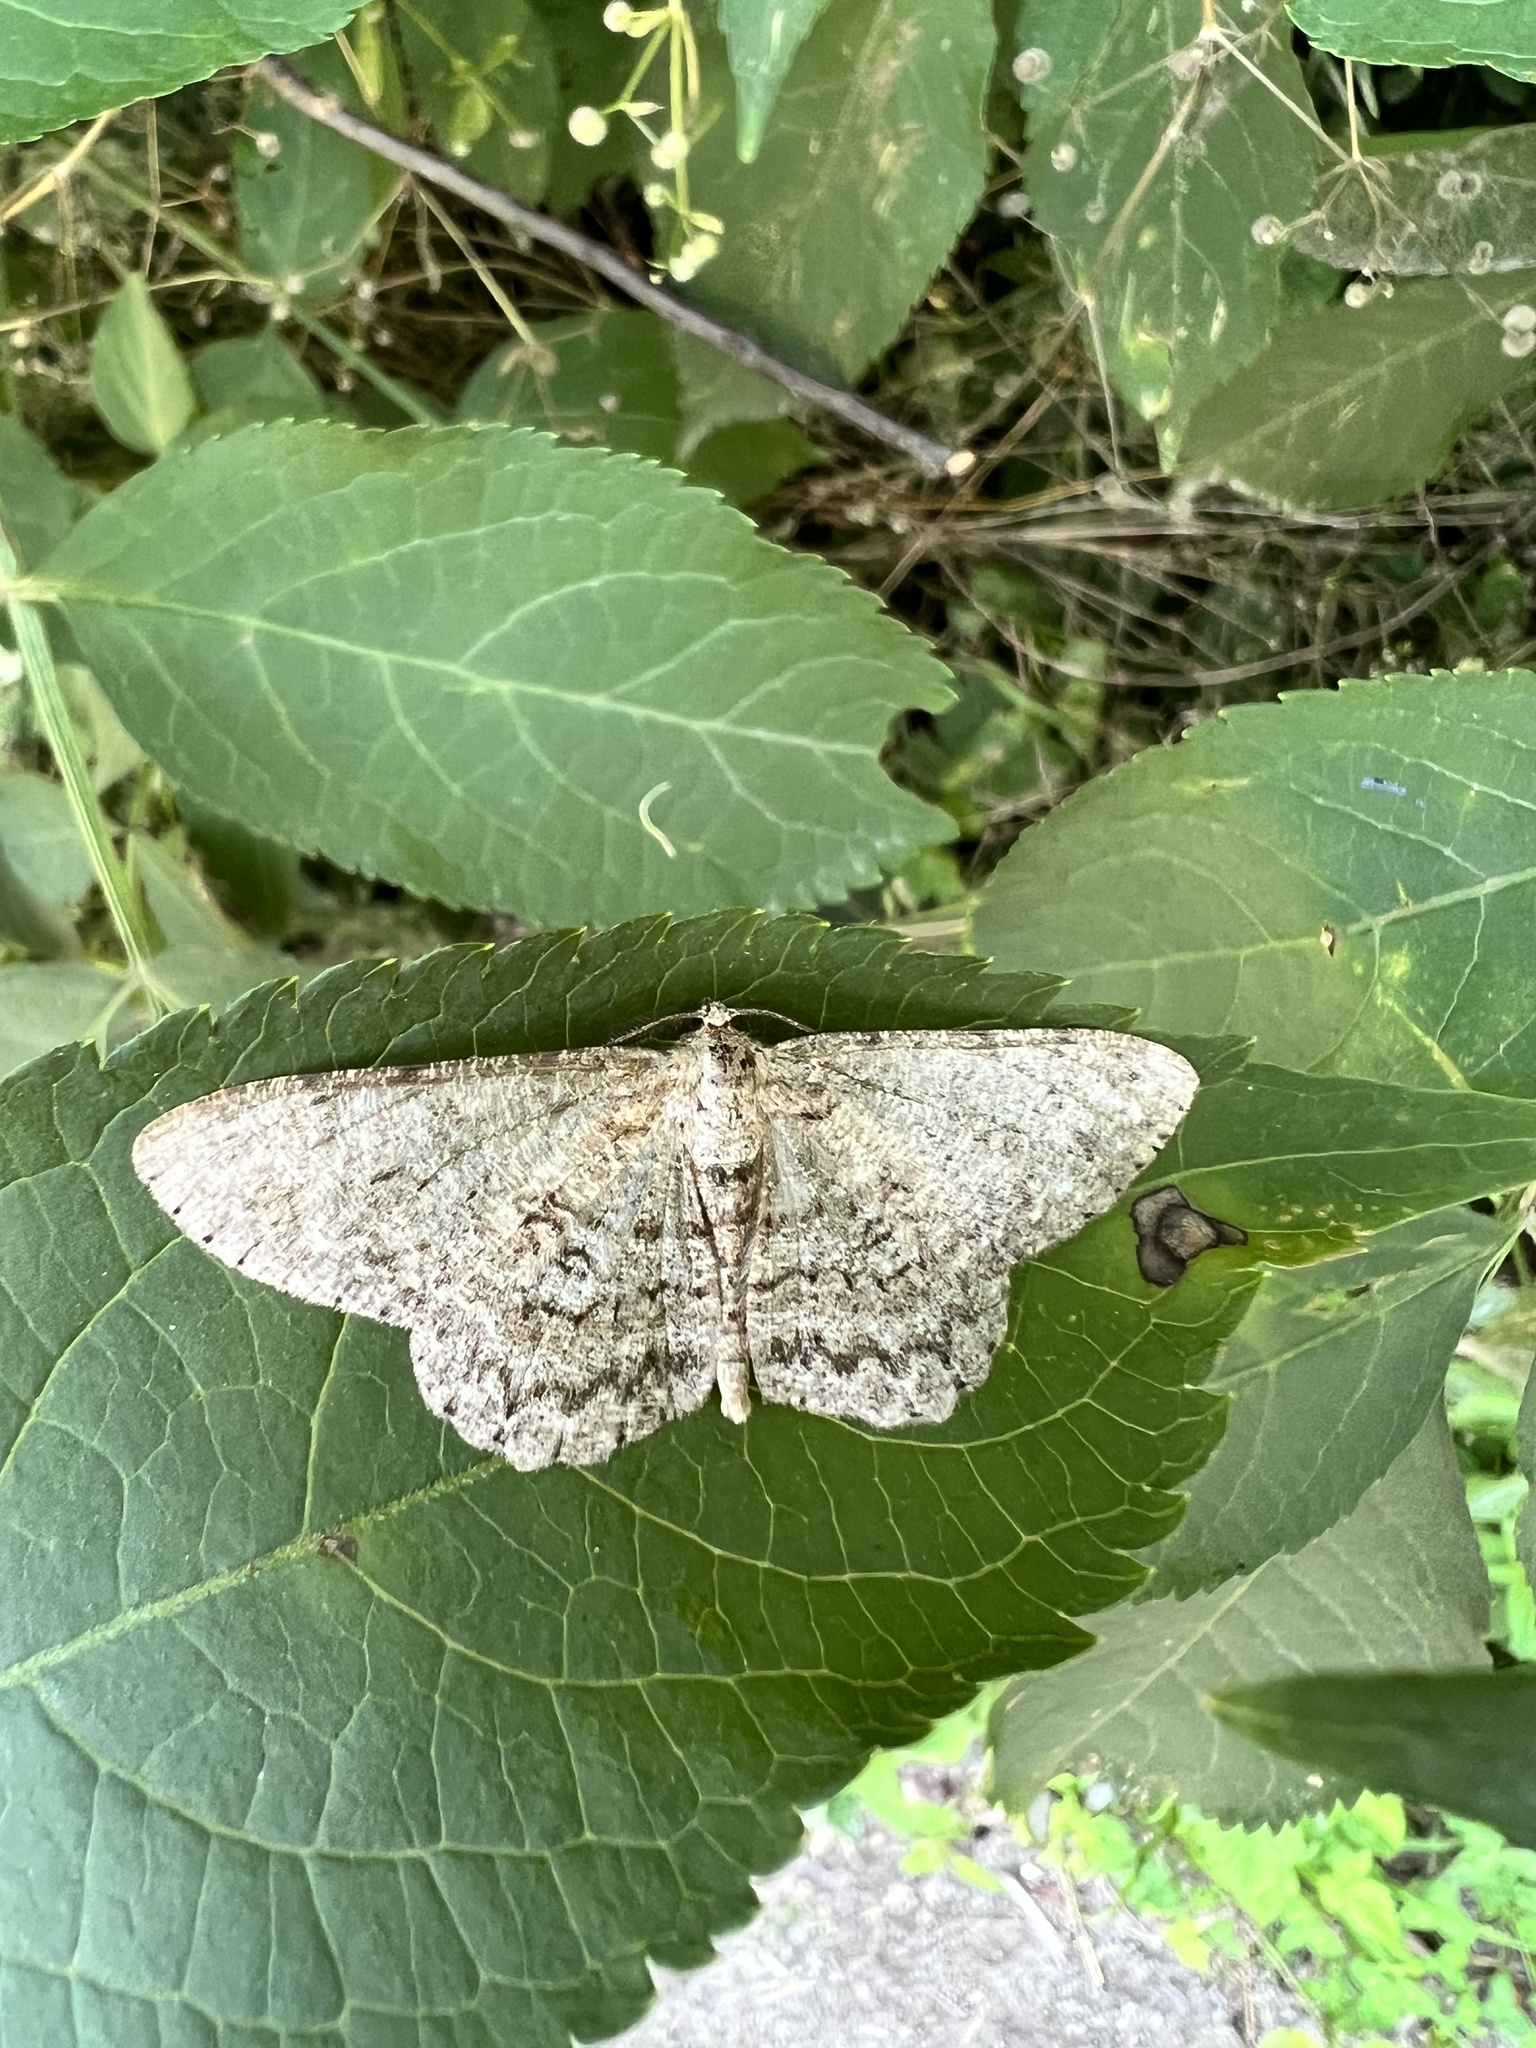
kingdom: Animalia
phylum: Arthropoda
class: Insecta
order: Lepidoptera
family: Geometridae
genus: Hypomecis
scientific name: Hypomecis punctinalis
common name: Pale oak beauty
